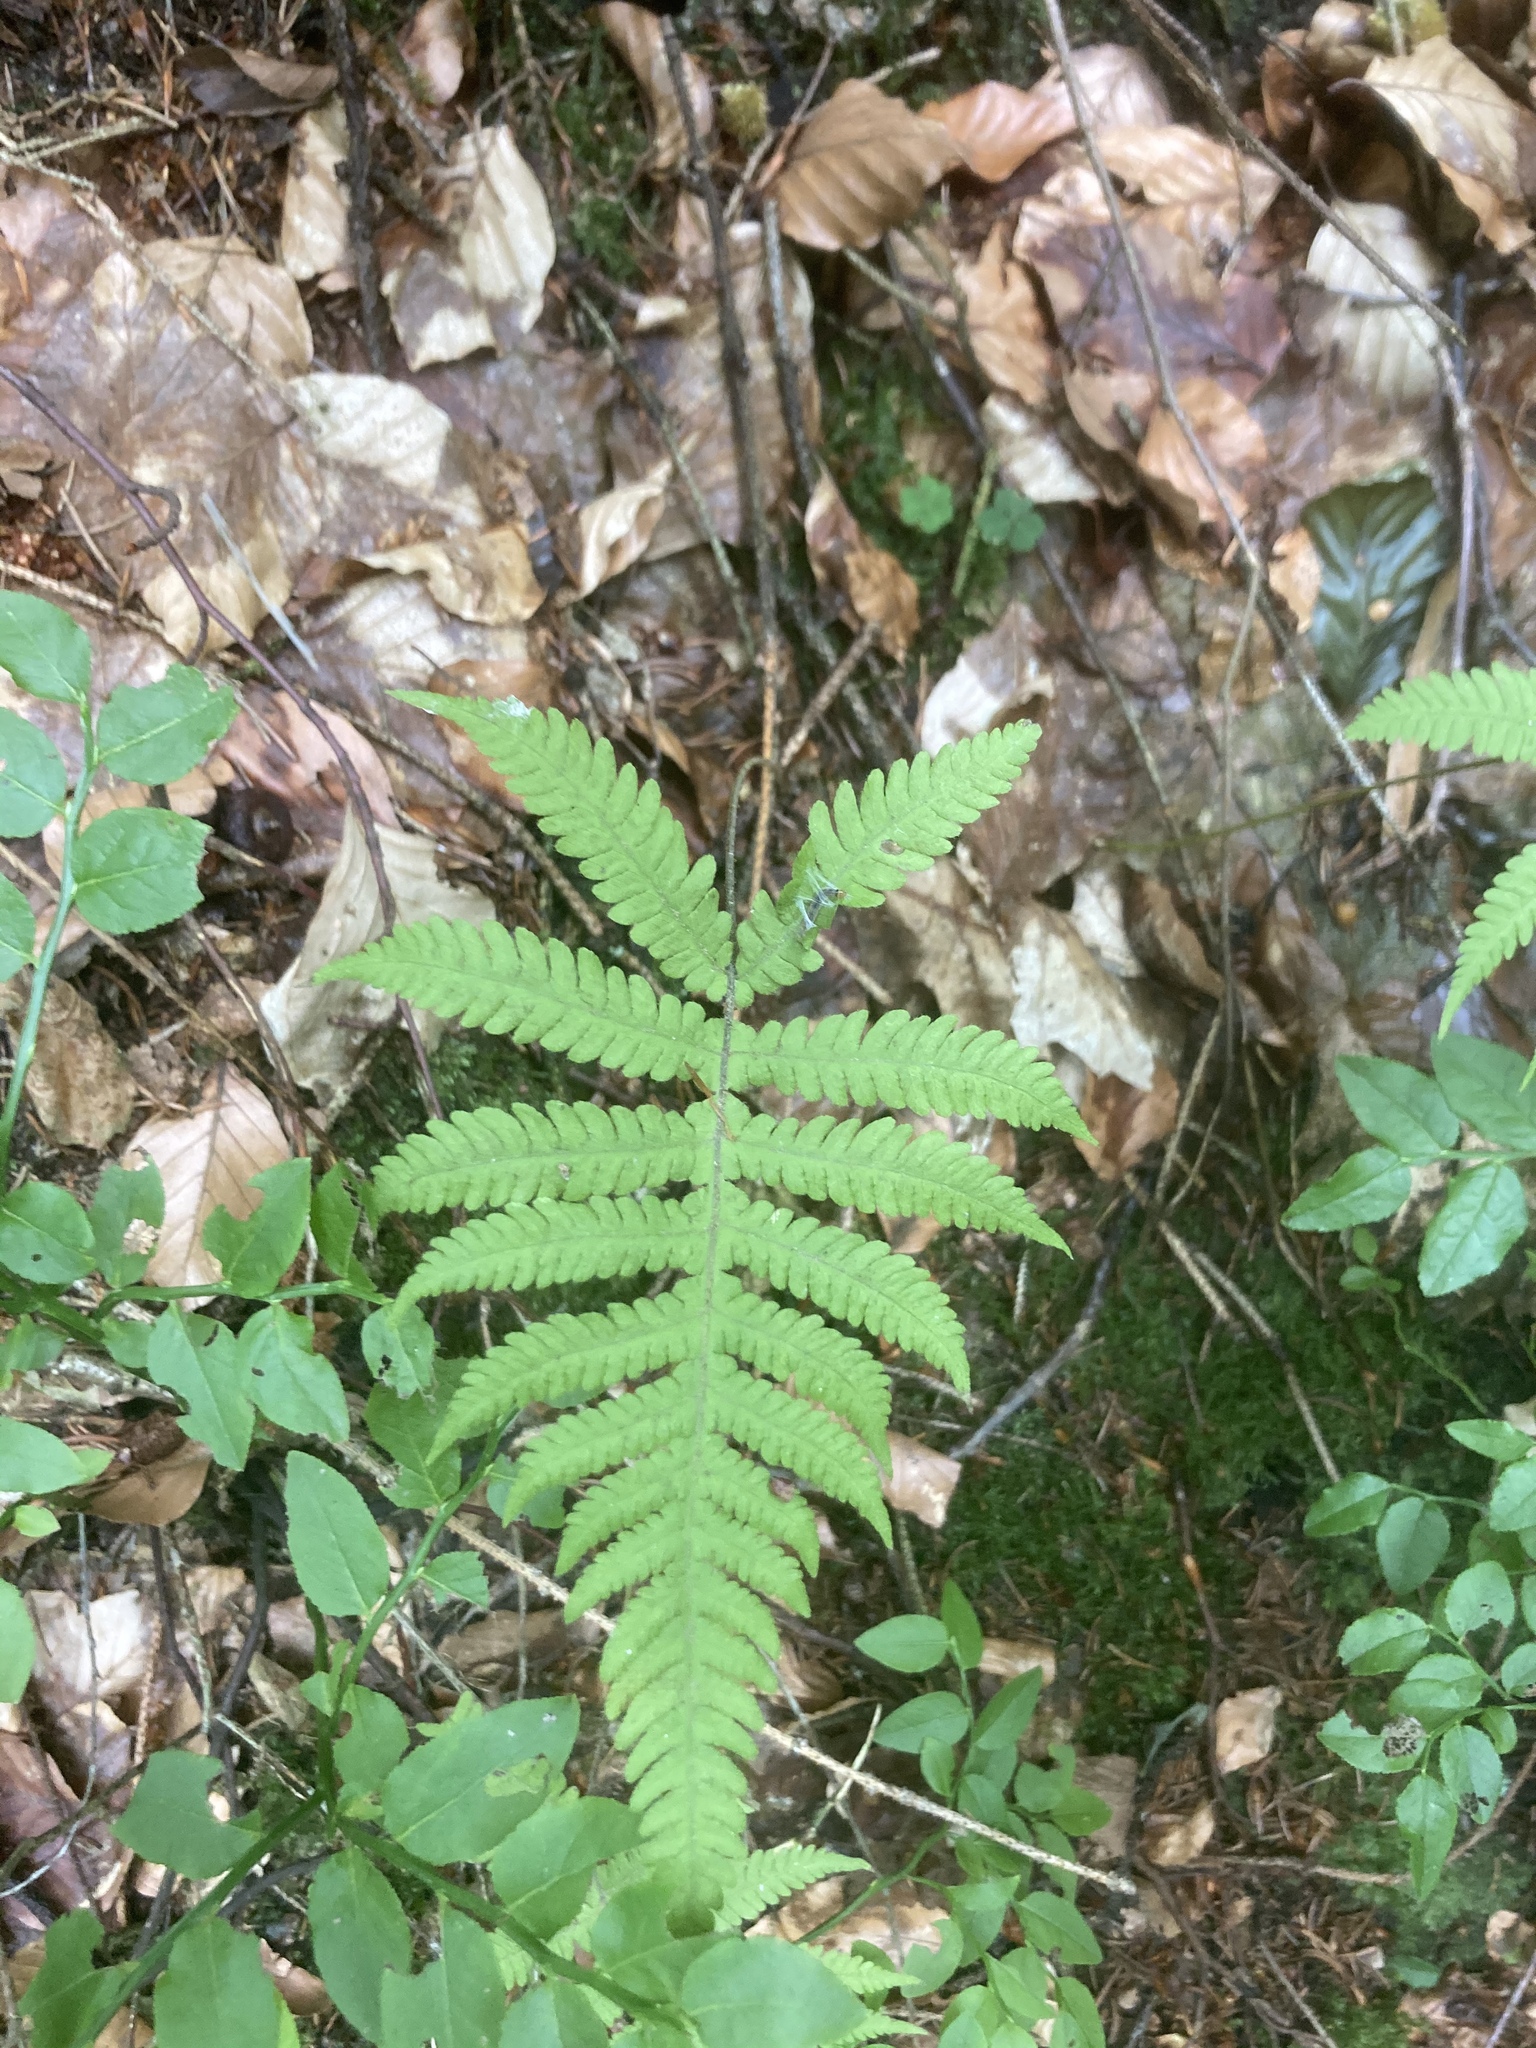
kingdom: Plantae
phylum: Tracheophyta
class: Polypodiopsida
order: Polypodiales
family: Thelypteridaceae
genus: Phegopteris
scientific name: Phegopteris connectilis
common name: Beech fern
